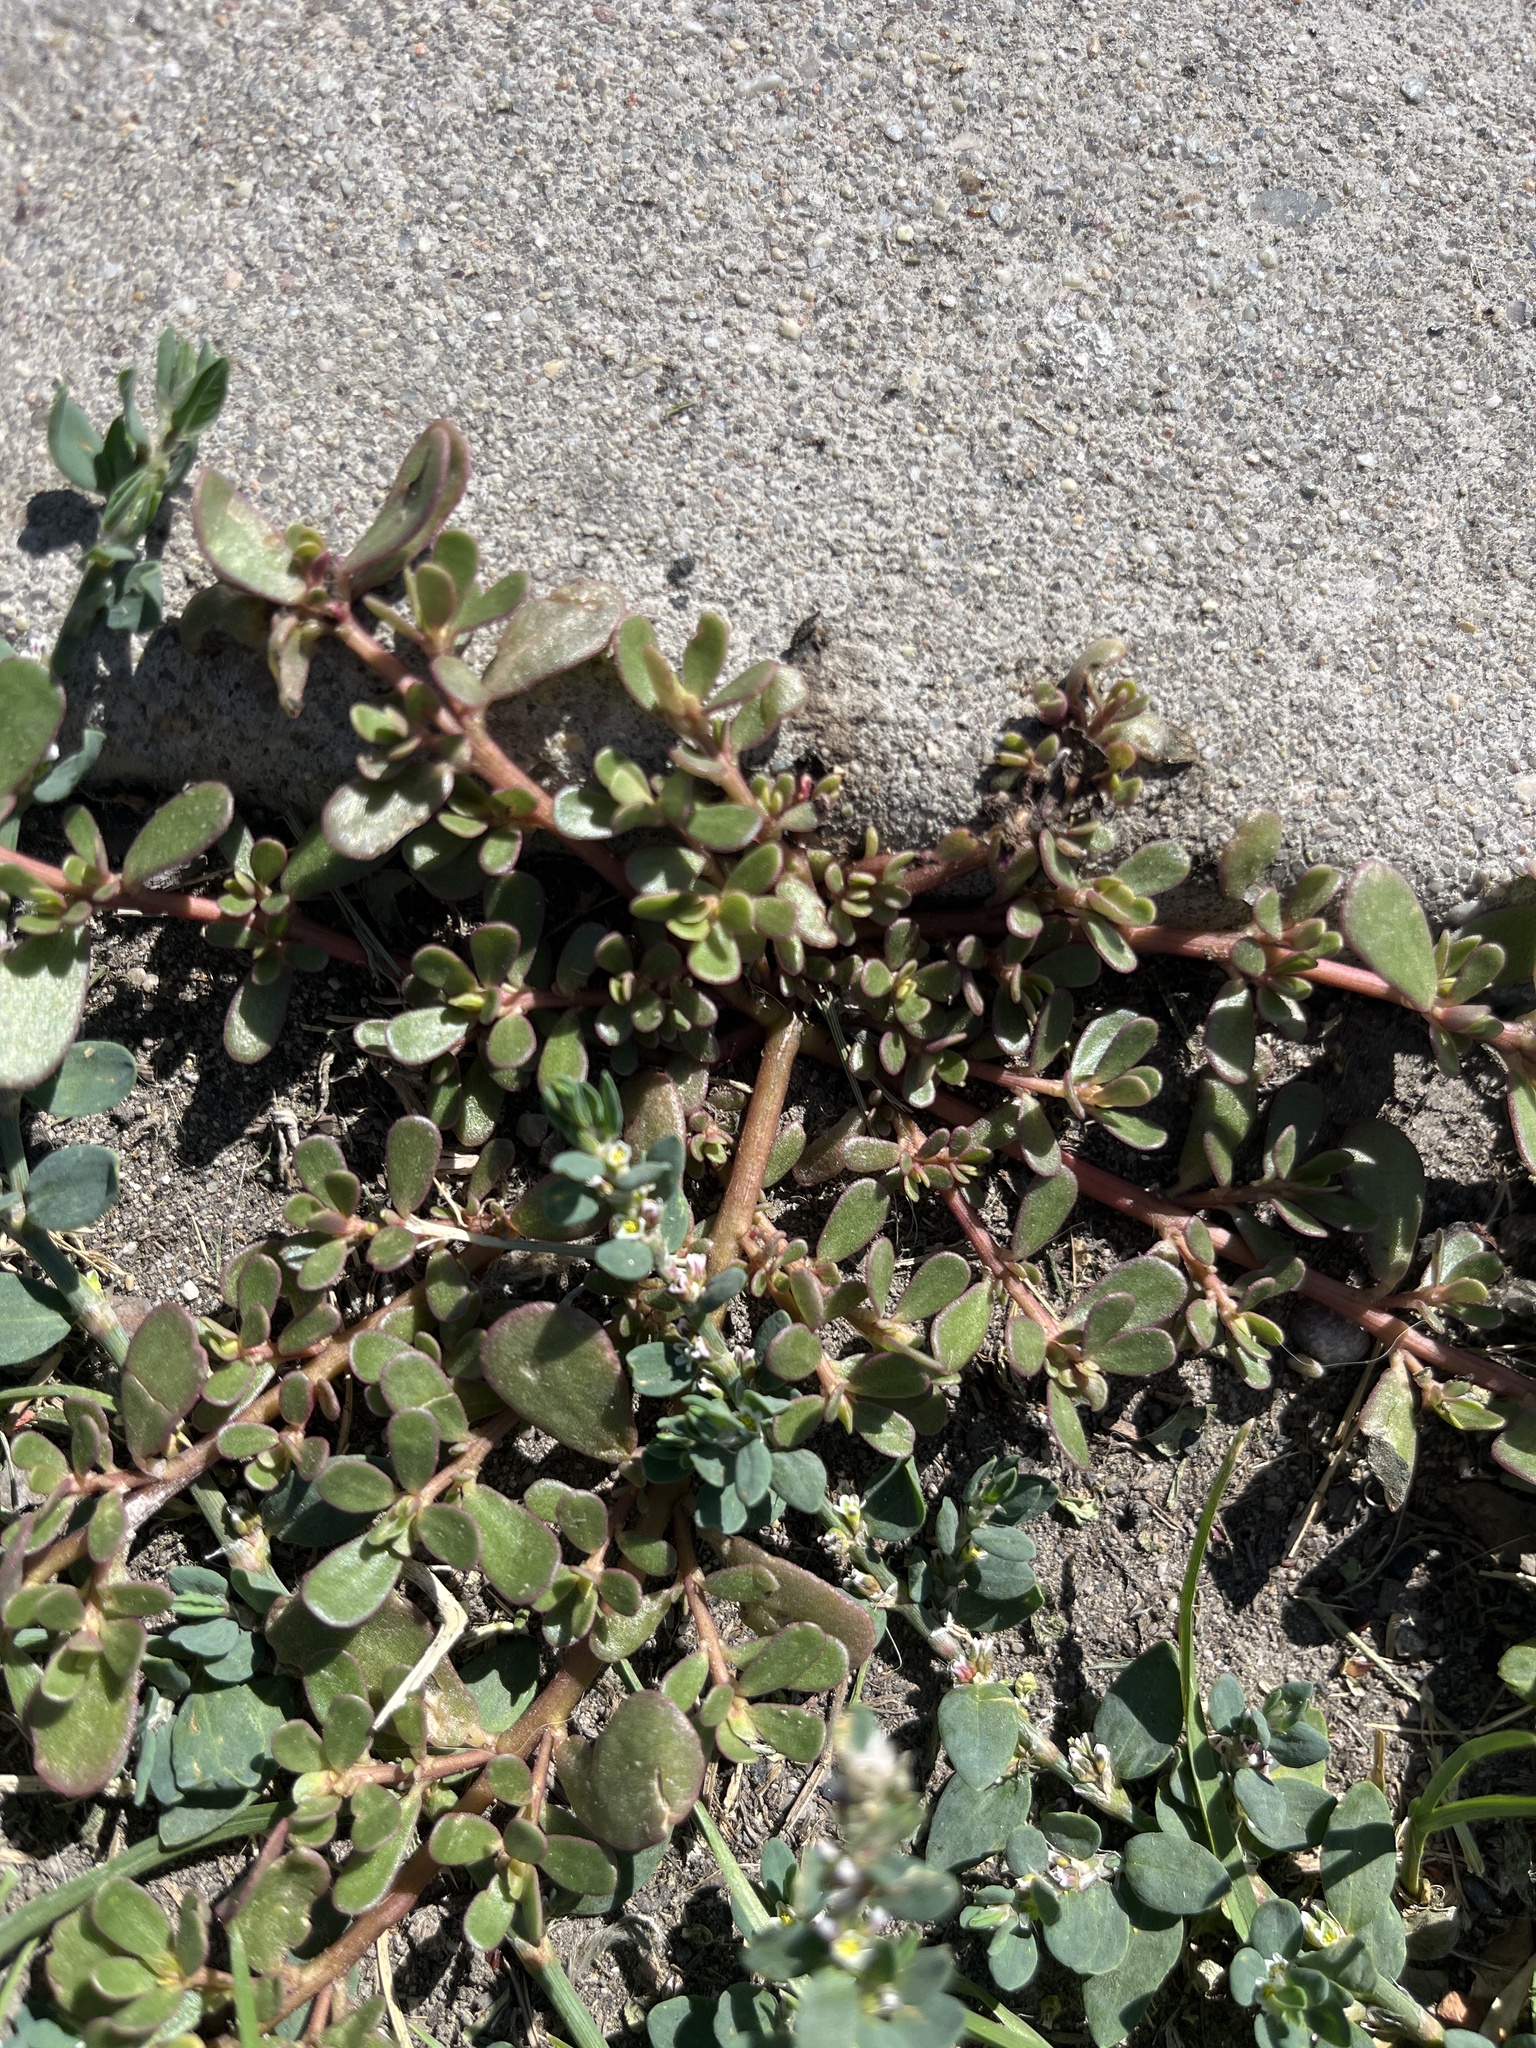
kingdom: Plantae
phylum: Tracheophyta
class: Magnoliopsida
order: Caryophyllales
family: Portulacaceae
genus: Portulaca
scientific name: Portulaca oleracea
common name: Common purslane
